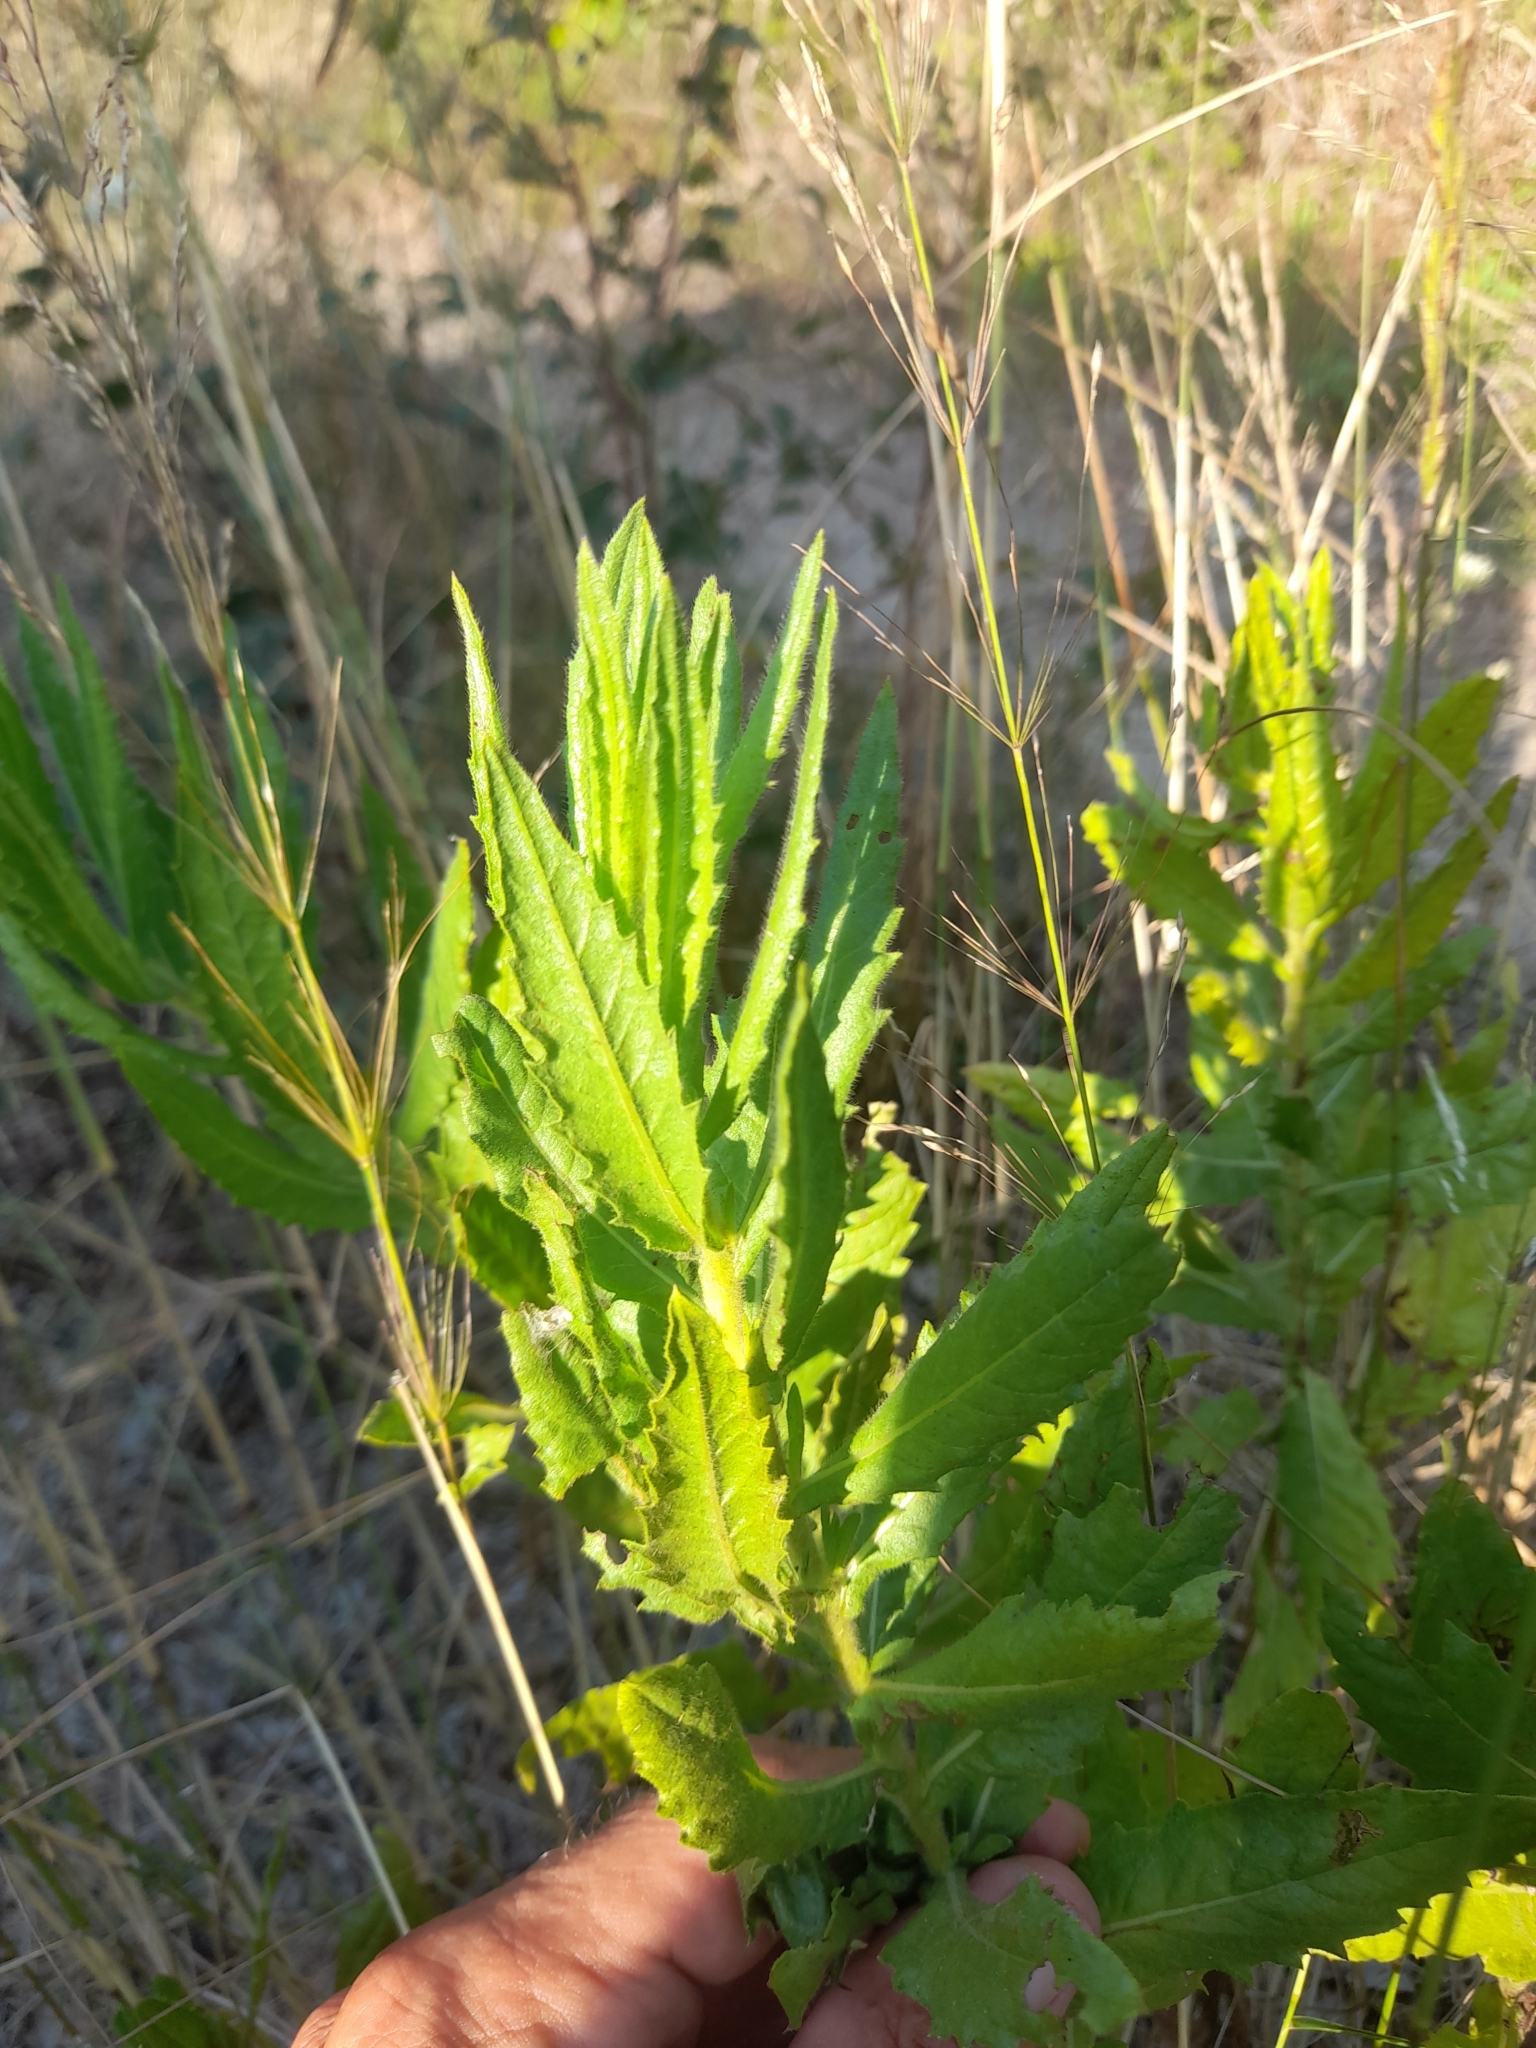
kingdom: Plantae
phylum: Tracheophyta
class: Magnoliopsida
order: Asterales
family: Asteraceae
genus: Dittrichia
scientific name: Dittrichia viscosa
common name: Woody fleabane
